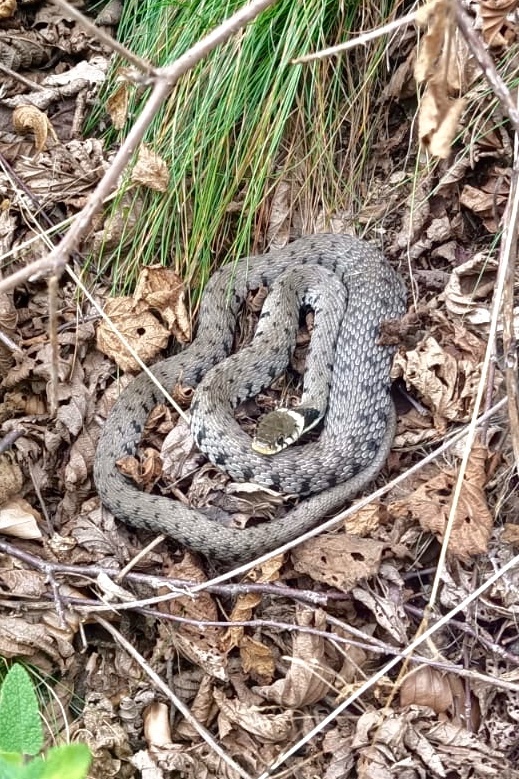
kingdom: Animalia
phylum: Chordata
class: Squamata
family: Colubridae
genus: Natrix
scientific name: Natrix helvetica
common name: Banded grass snake
